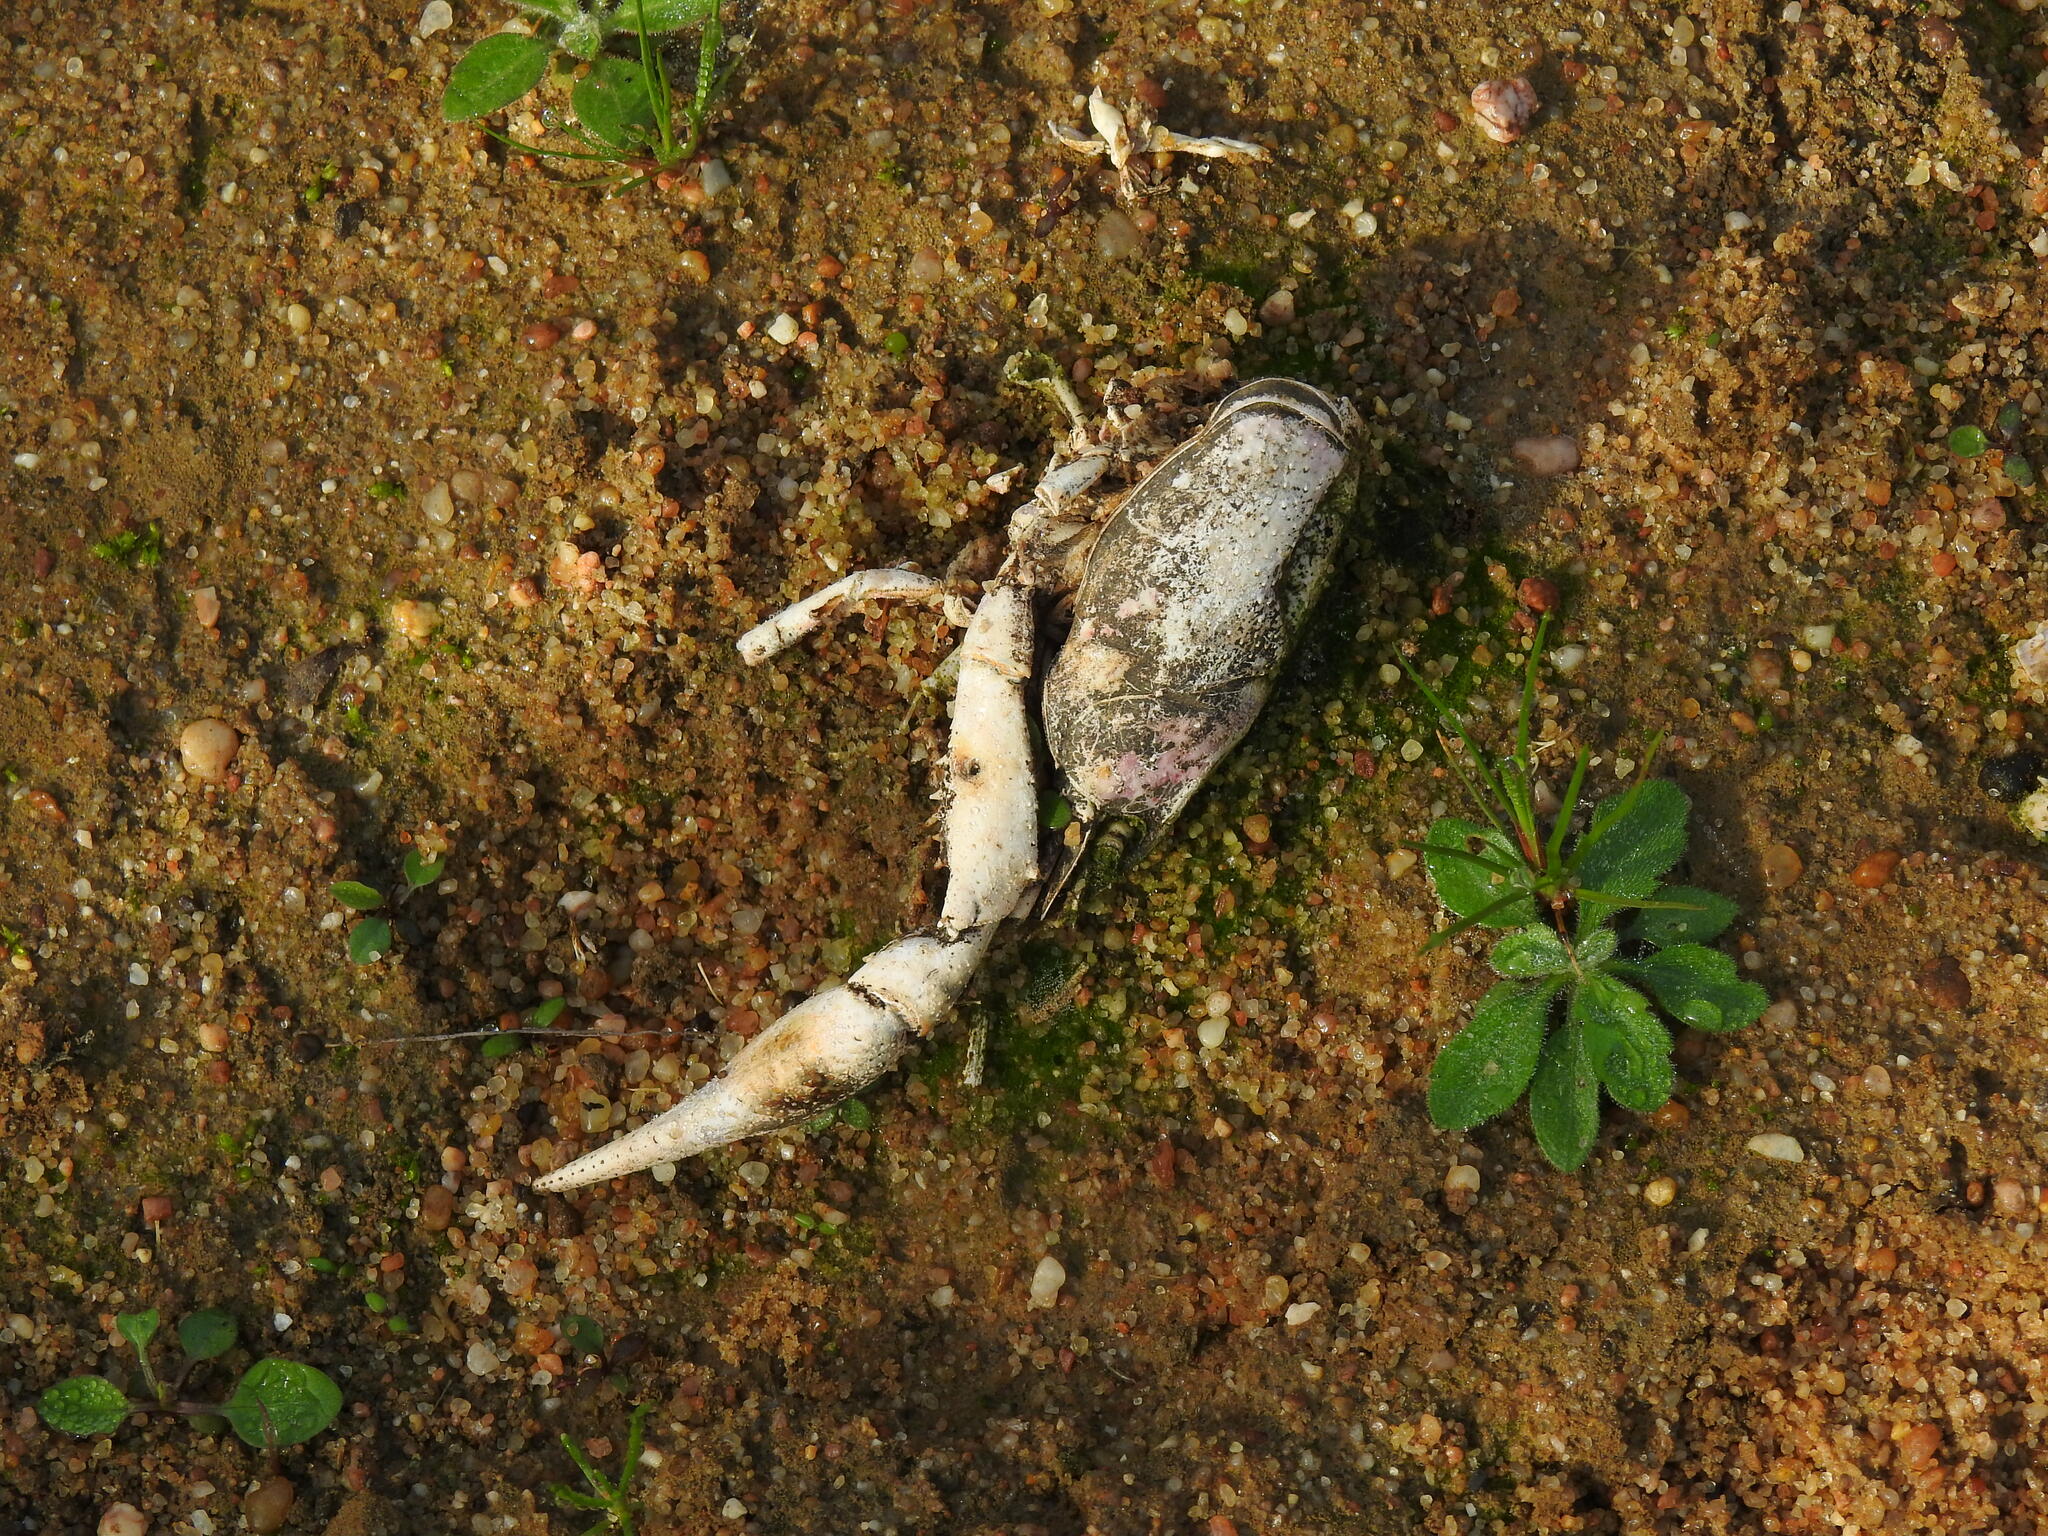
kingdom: Animalia
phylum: Arthropoda
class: Malacostraca
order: Decapoda
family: Cambaridae
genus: Procambarus
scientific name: Procambarus clarkii
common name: Red swamp crayfish
